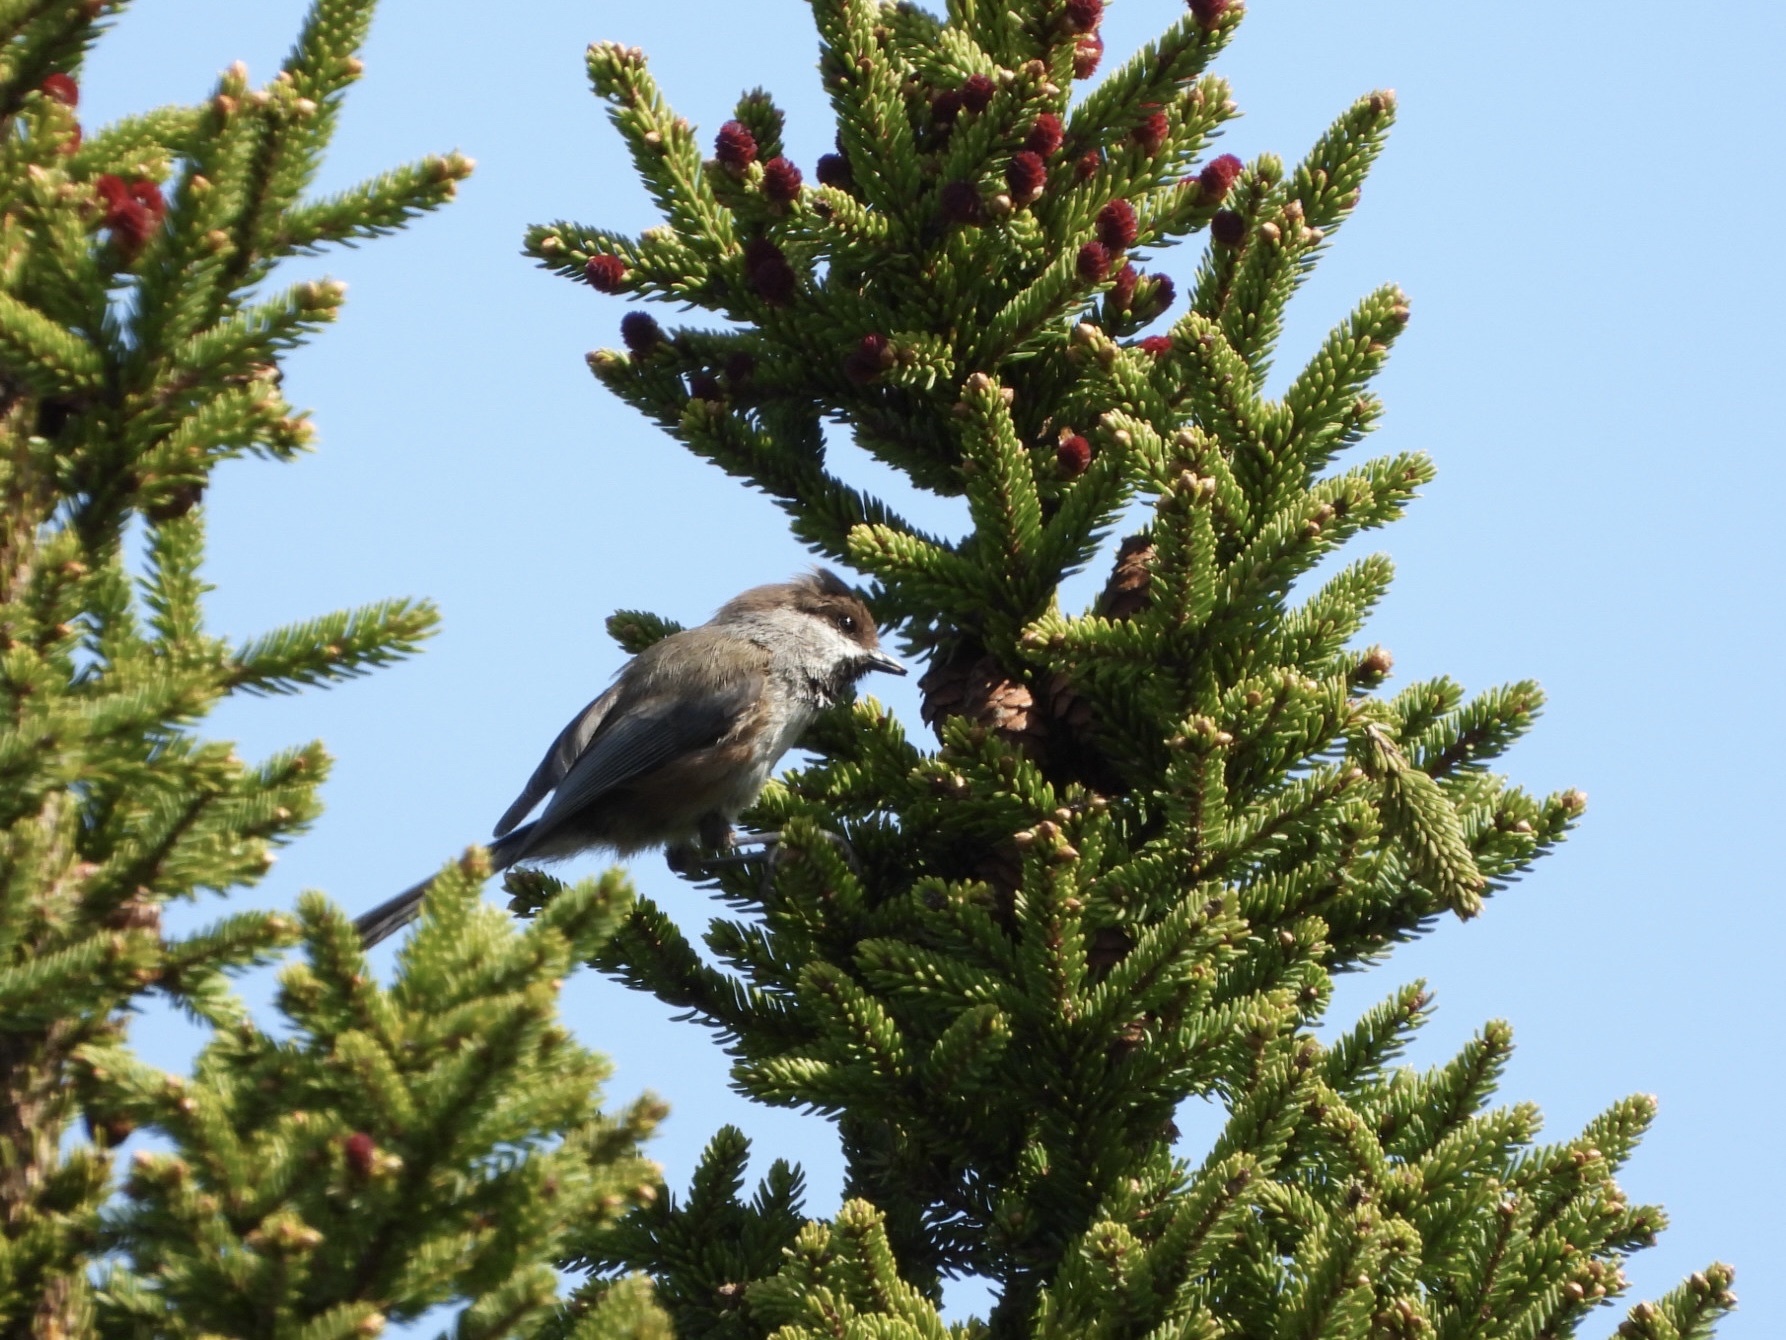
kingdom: Animalia
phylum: Chordata
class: Aves
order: Passeriformes
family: Paridae
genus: Poecile
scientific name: Poecile hudsonicus
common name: Boreal chickadee
